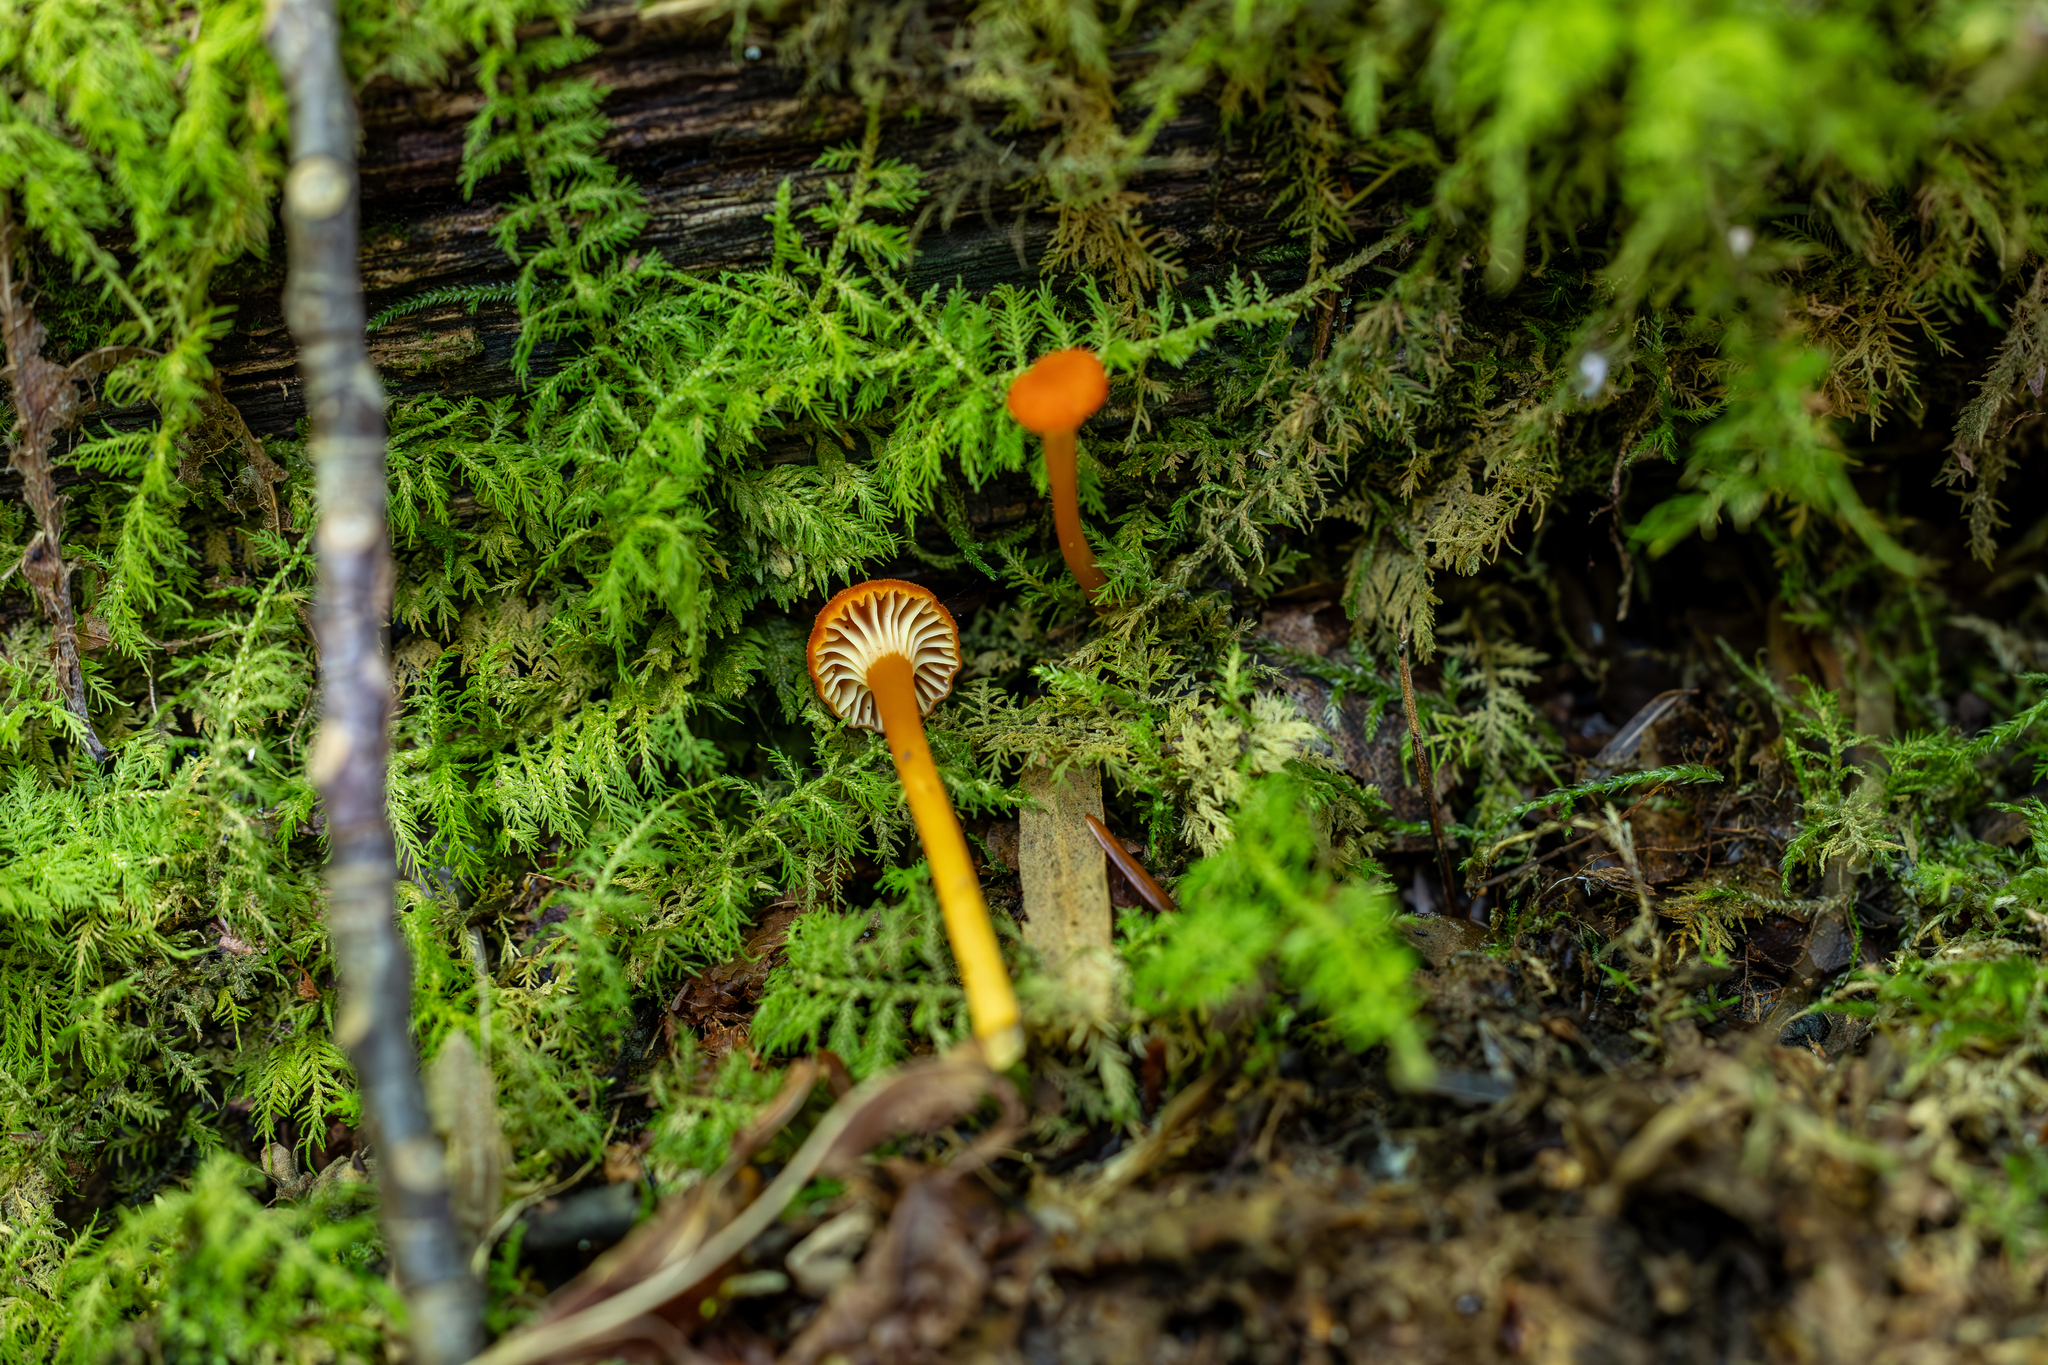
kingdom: Fungi
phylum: Basidiomycota
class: Agaricomycetes
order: Agaricales
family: Hygrophoraceae
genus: Hygrocybe
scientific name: Hygrocybe cantharellus
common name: Goblet waxcap
